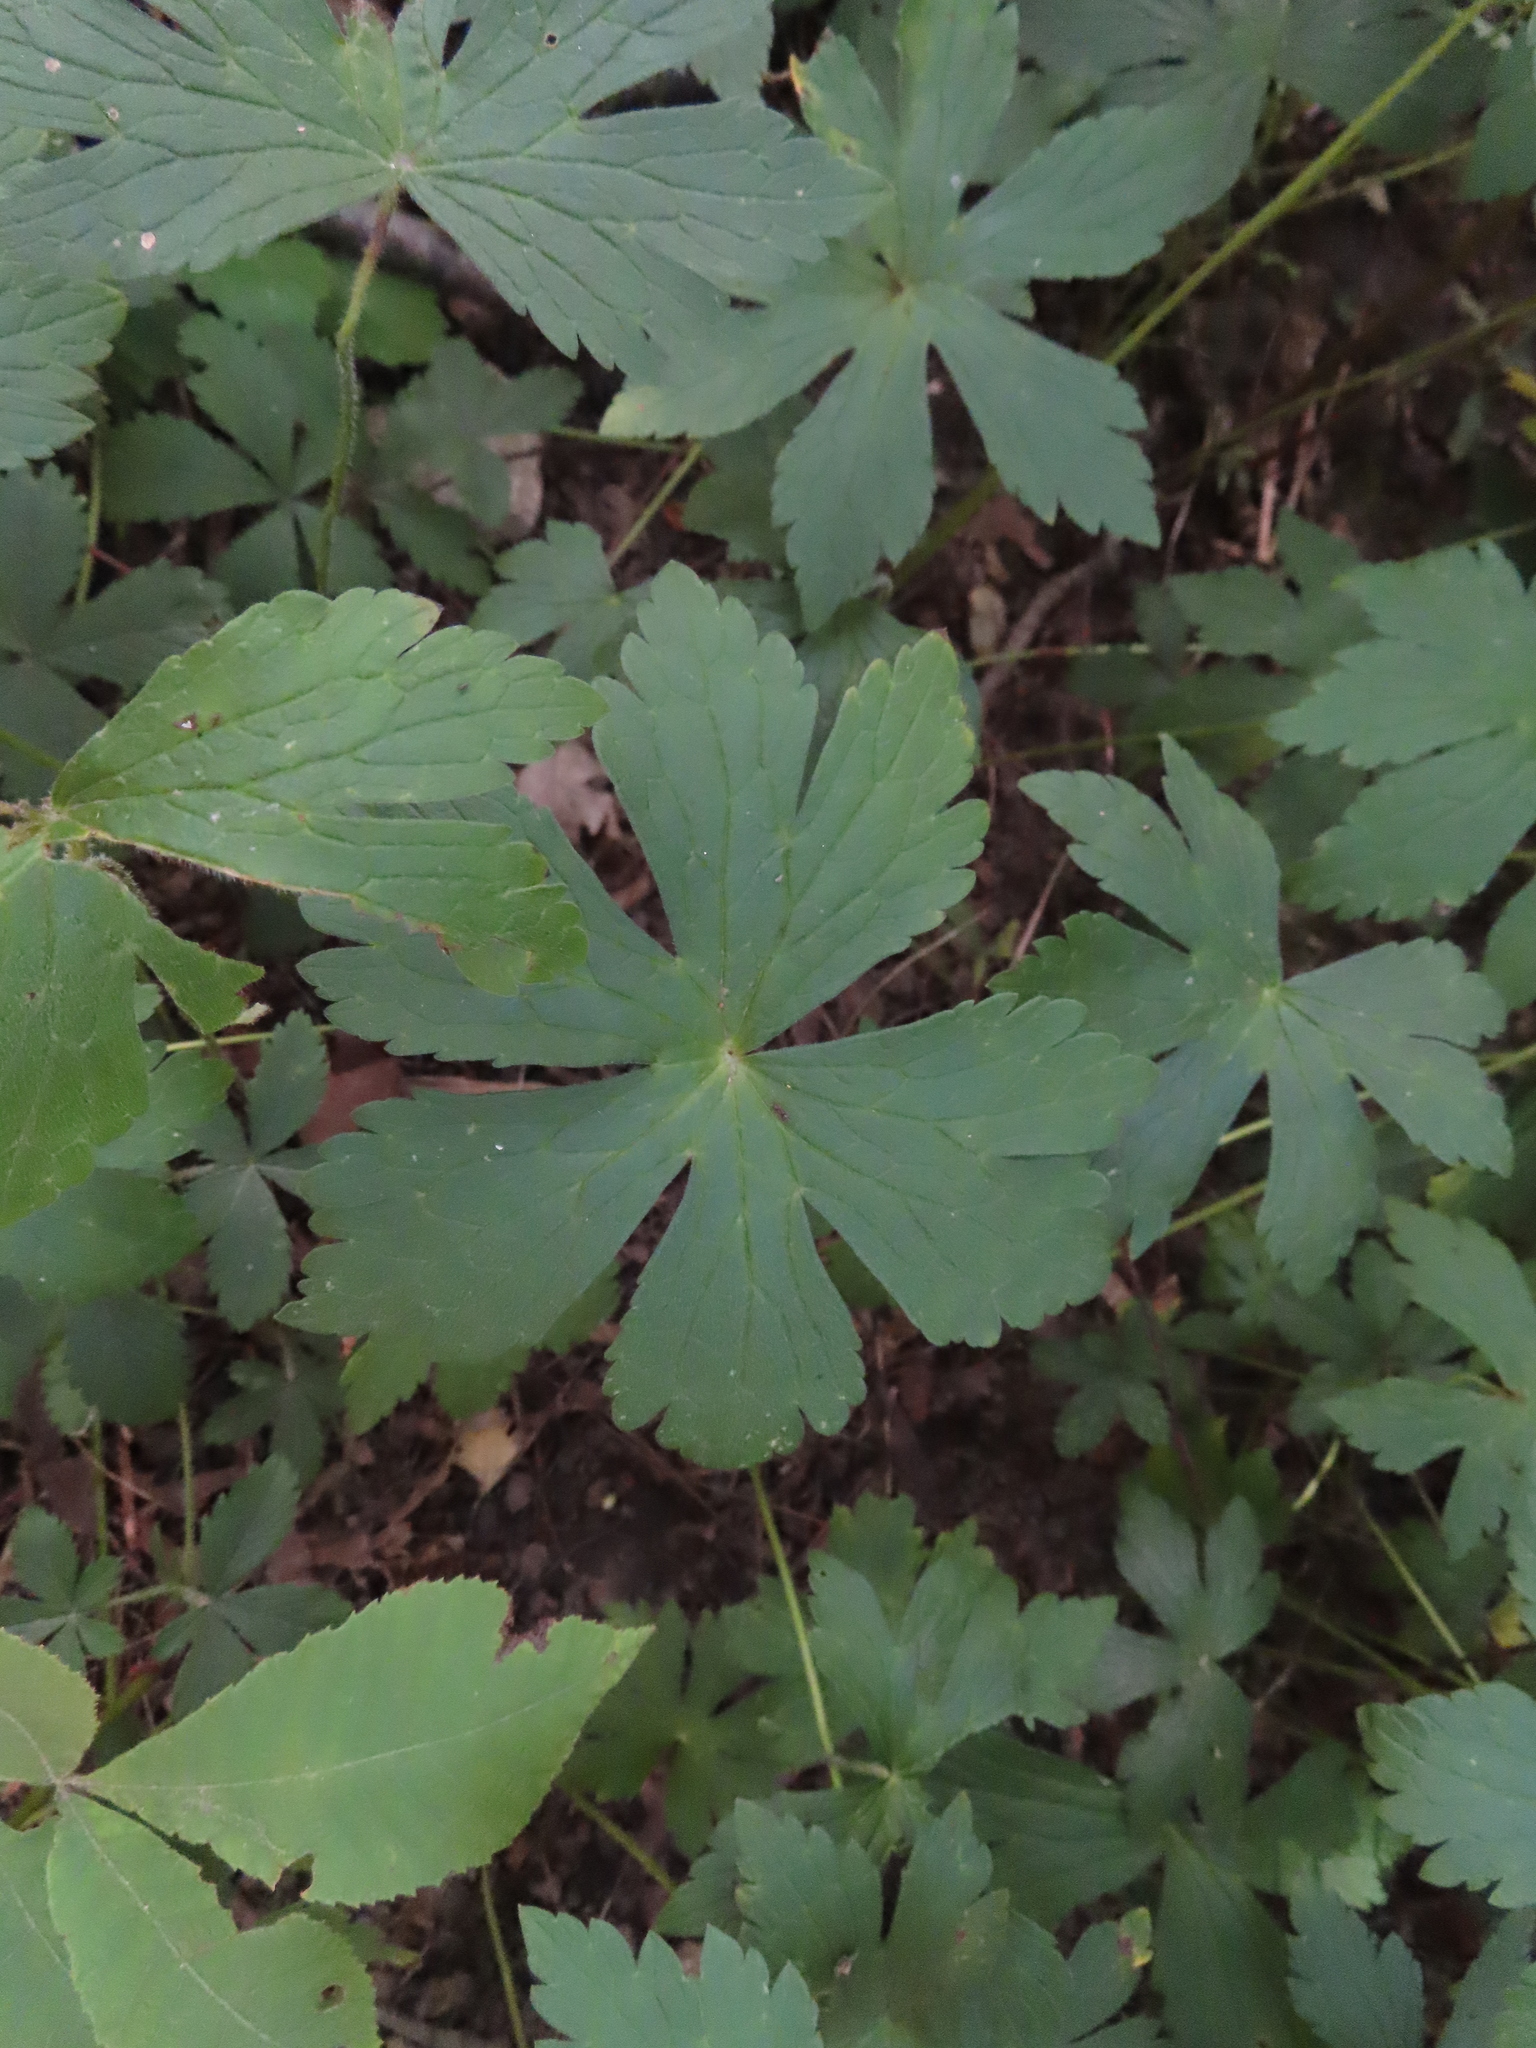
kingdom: Plantae
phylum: Tracheophyta
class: Magnoliopsida
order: Geraniales
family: Geraniaceae
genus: Geranium
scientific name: Geranium maculatum
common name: Spotted geranium
